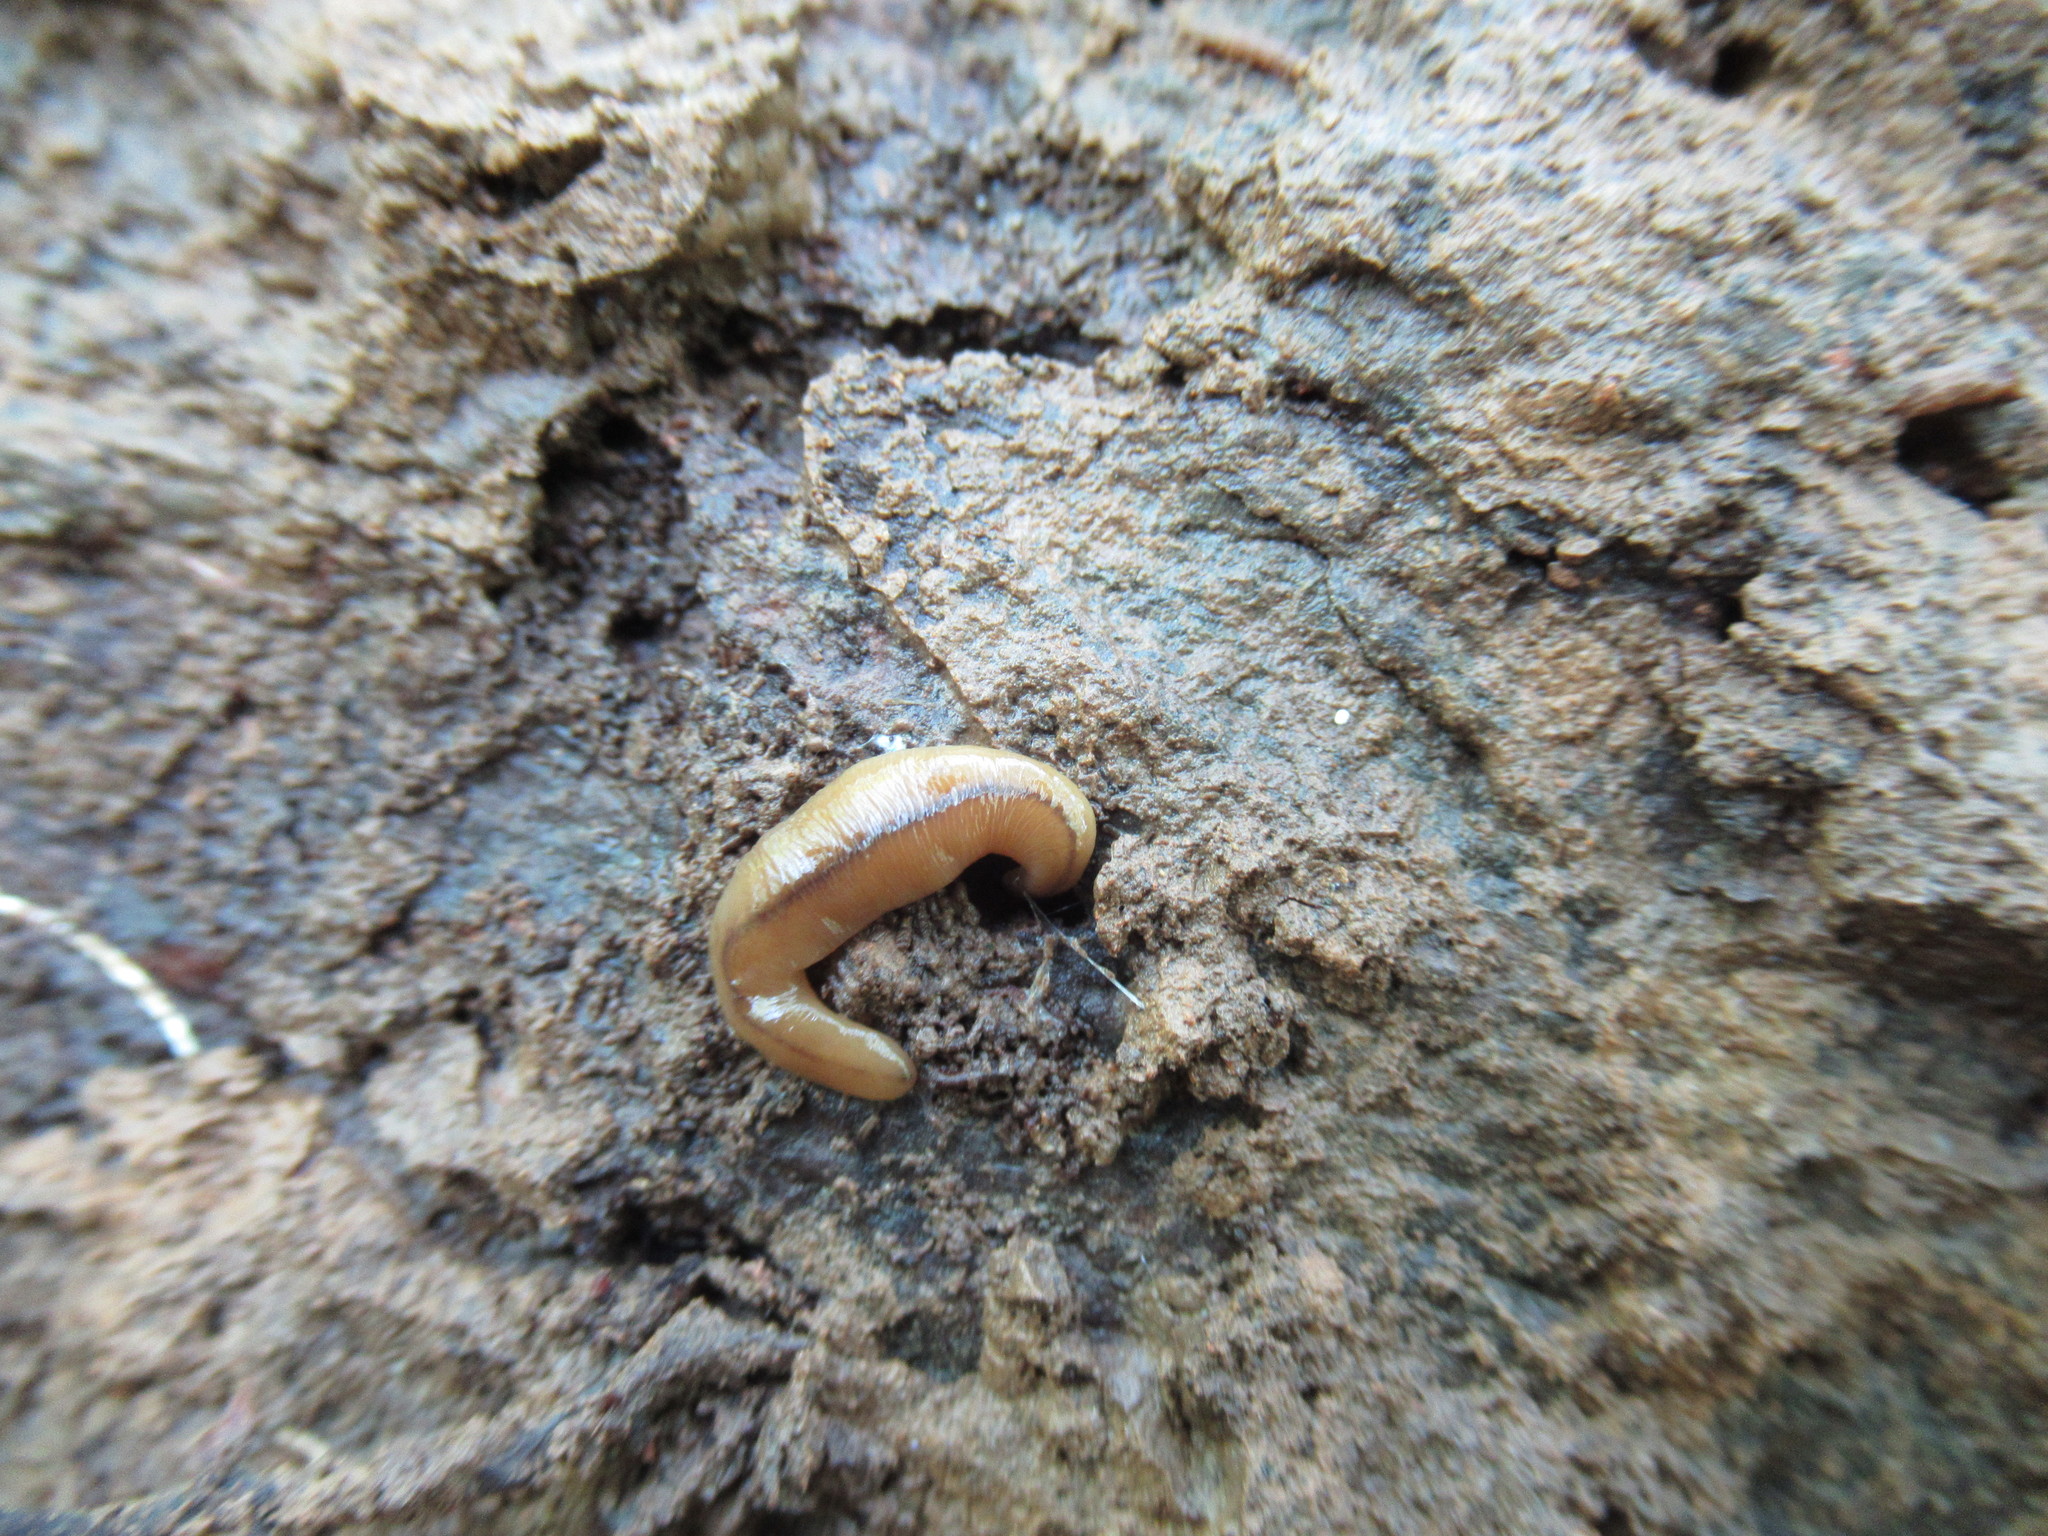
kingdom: Animalia
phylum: Platyhelminthes
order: Tricladida
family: Geoplanidae
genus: Bipalium
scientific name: Bipalium adventitium
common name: Land planarian
